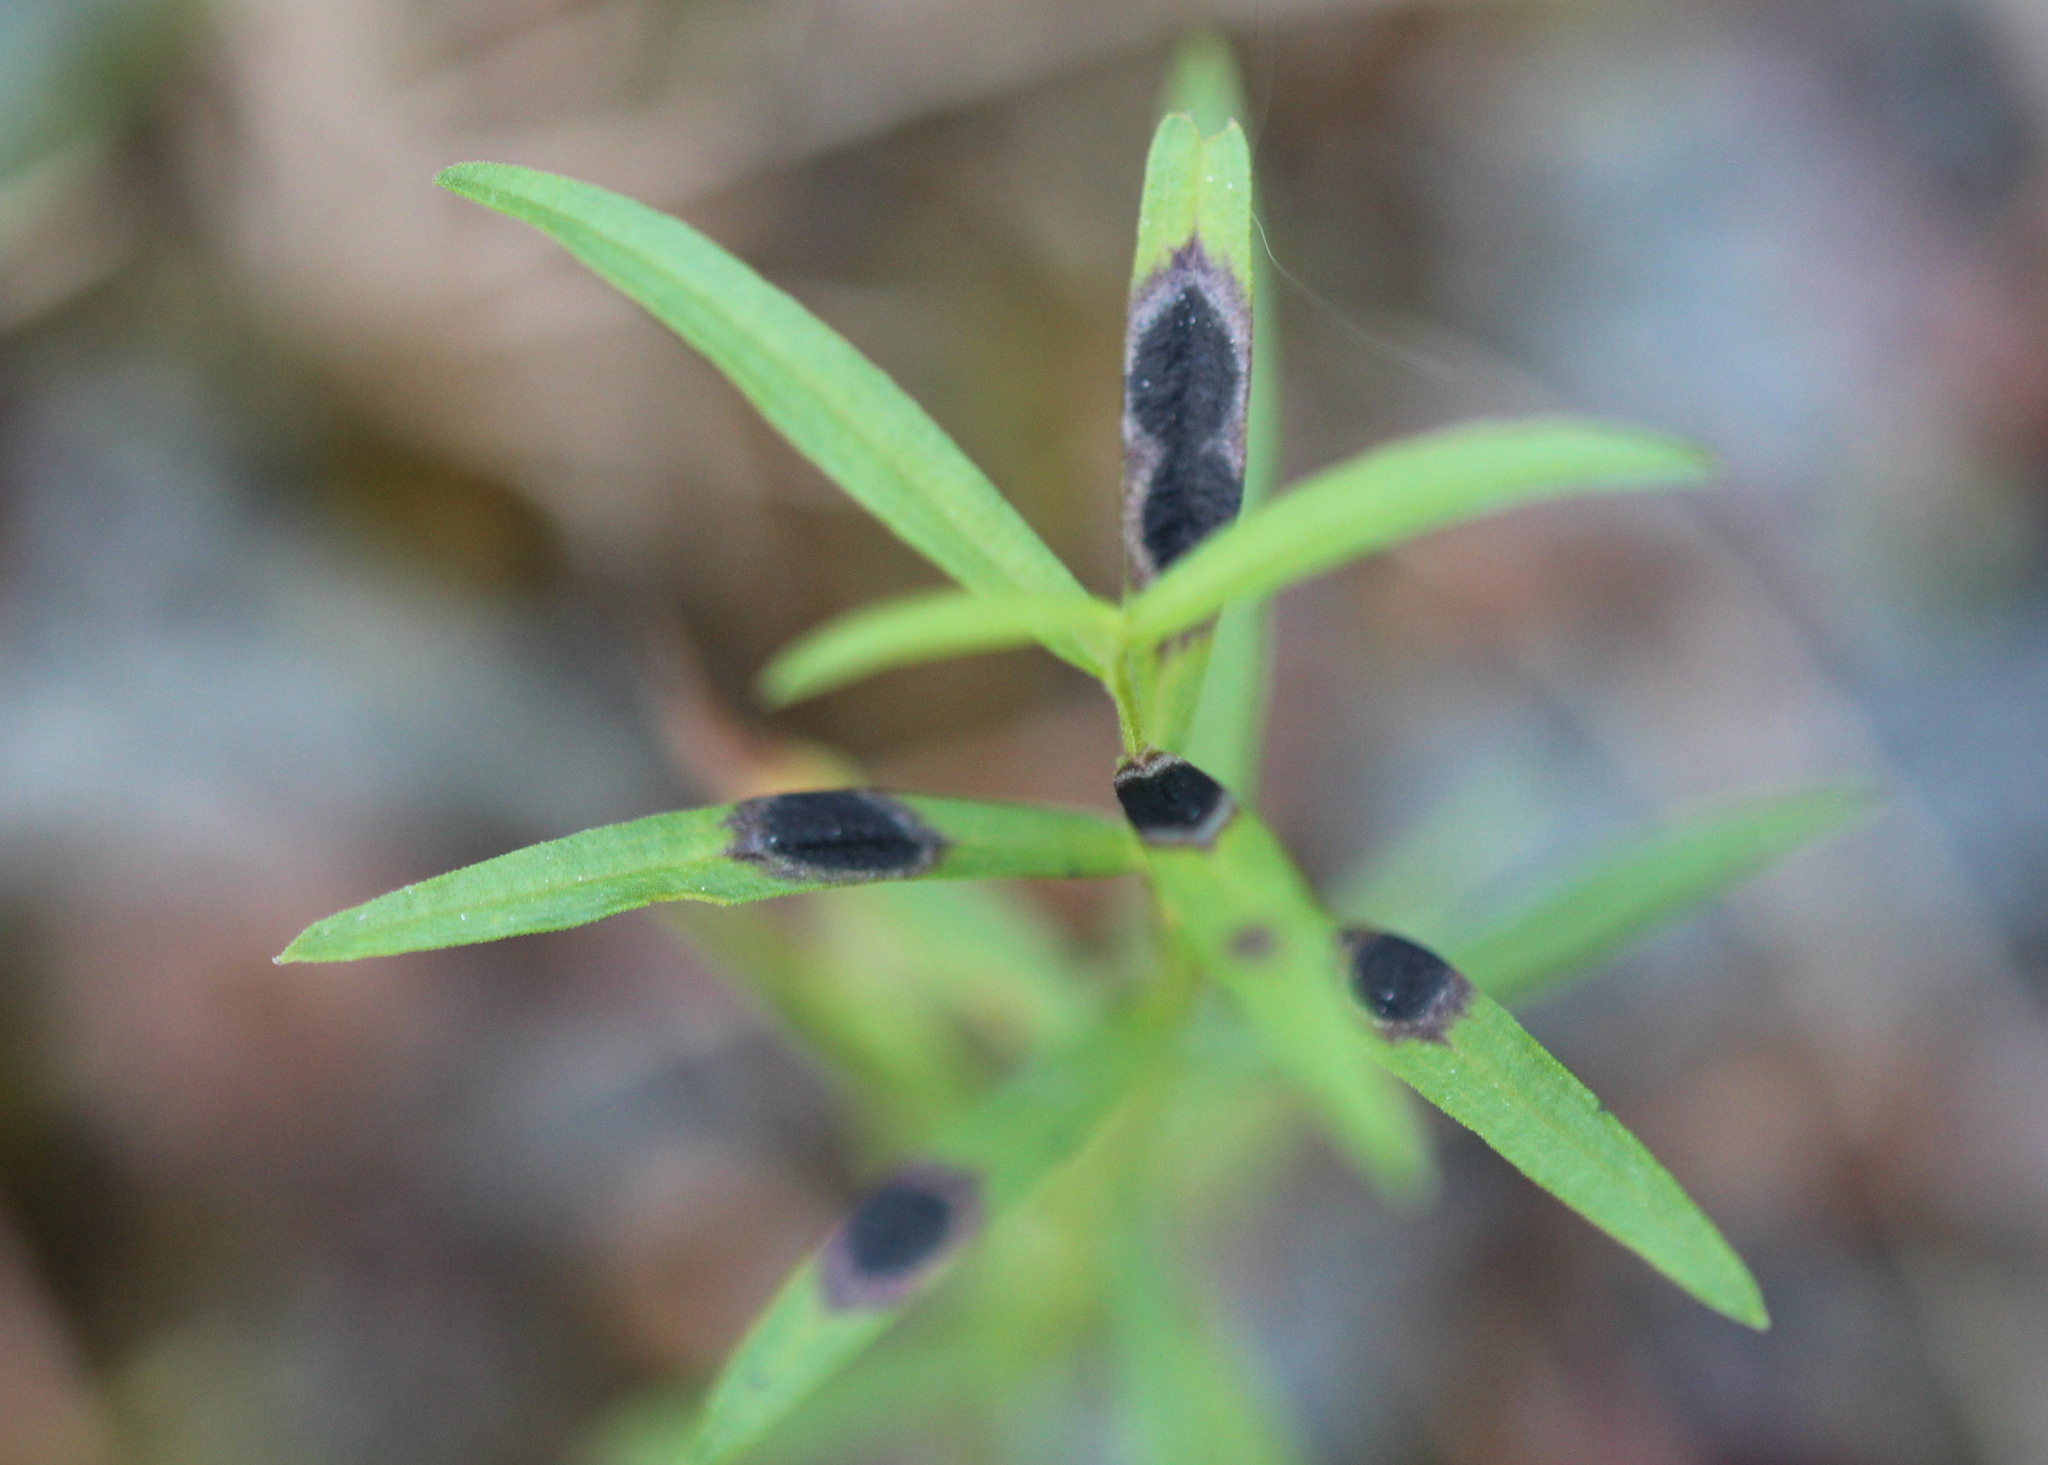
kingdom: Animalia
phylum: Arthropoda
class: Insecta
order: Diptera
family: Cecidomyiidae
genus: Asteromyia
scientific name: Asteromyia euthamiae
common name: Euthamia leaf gall midge
